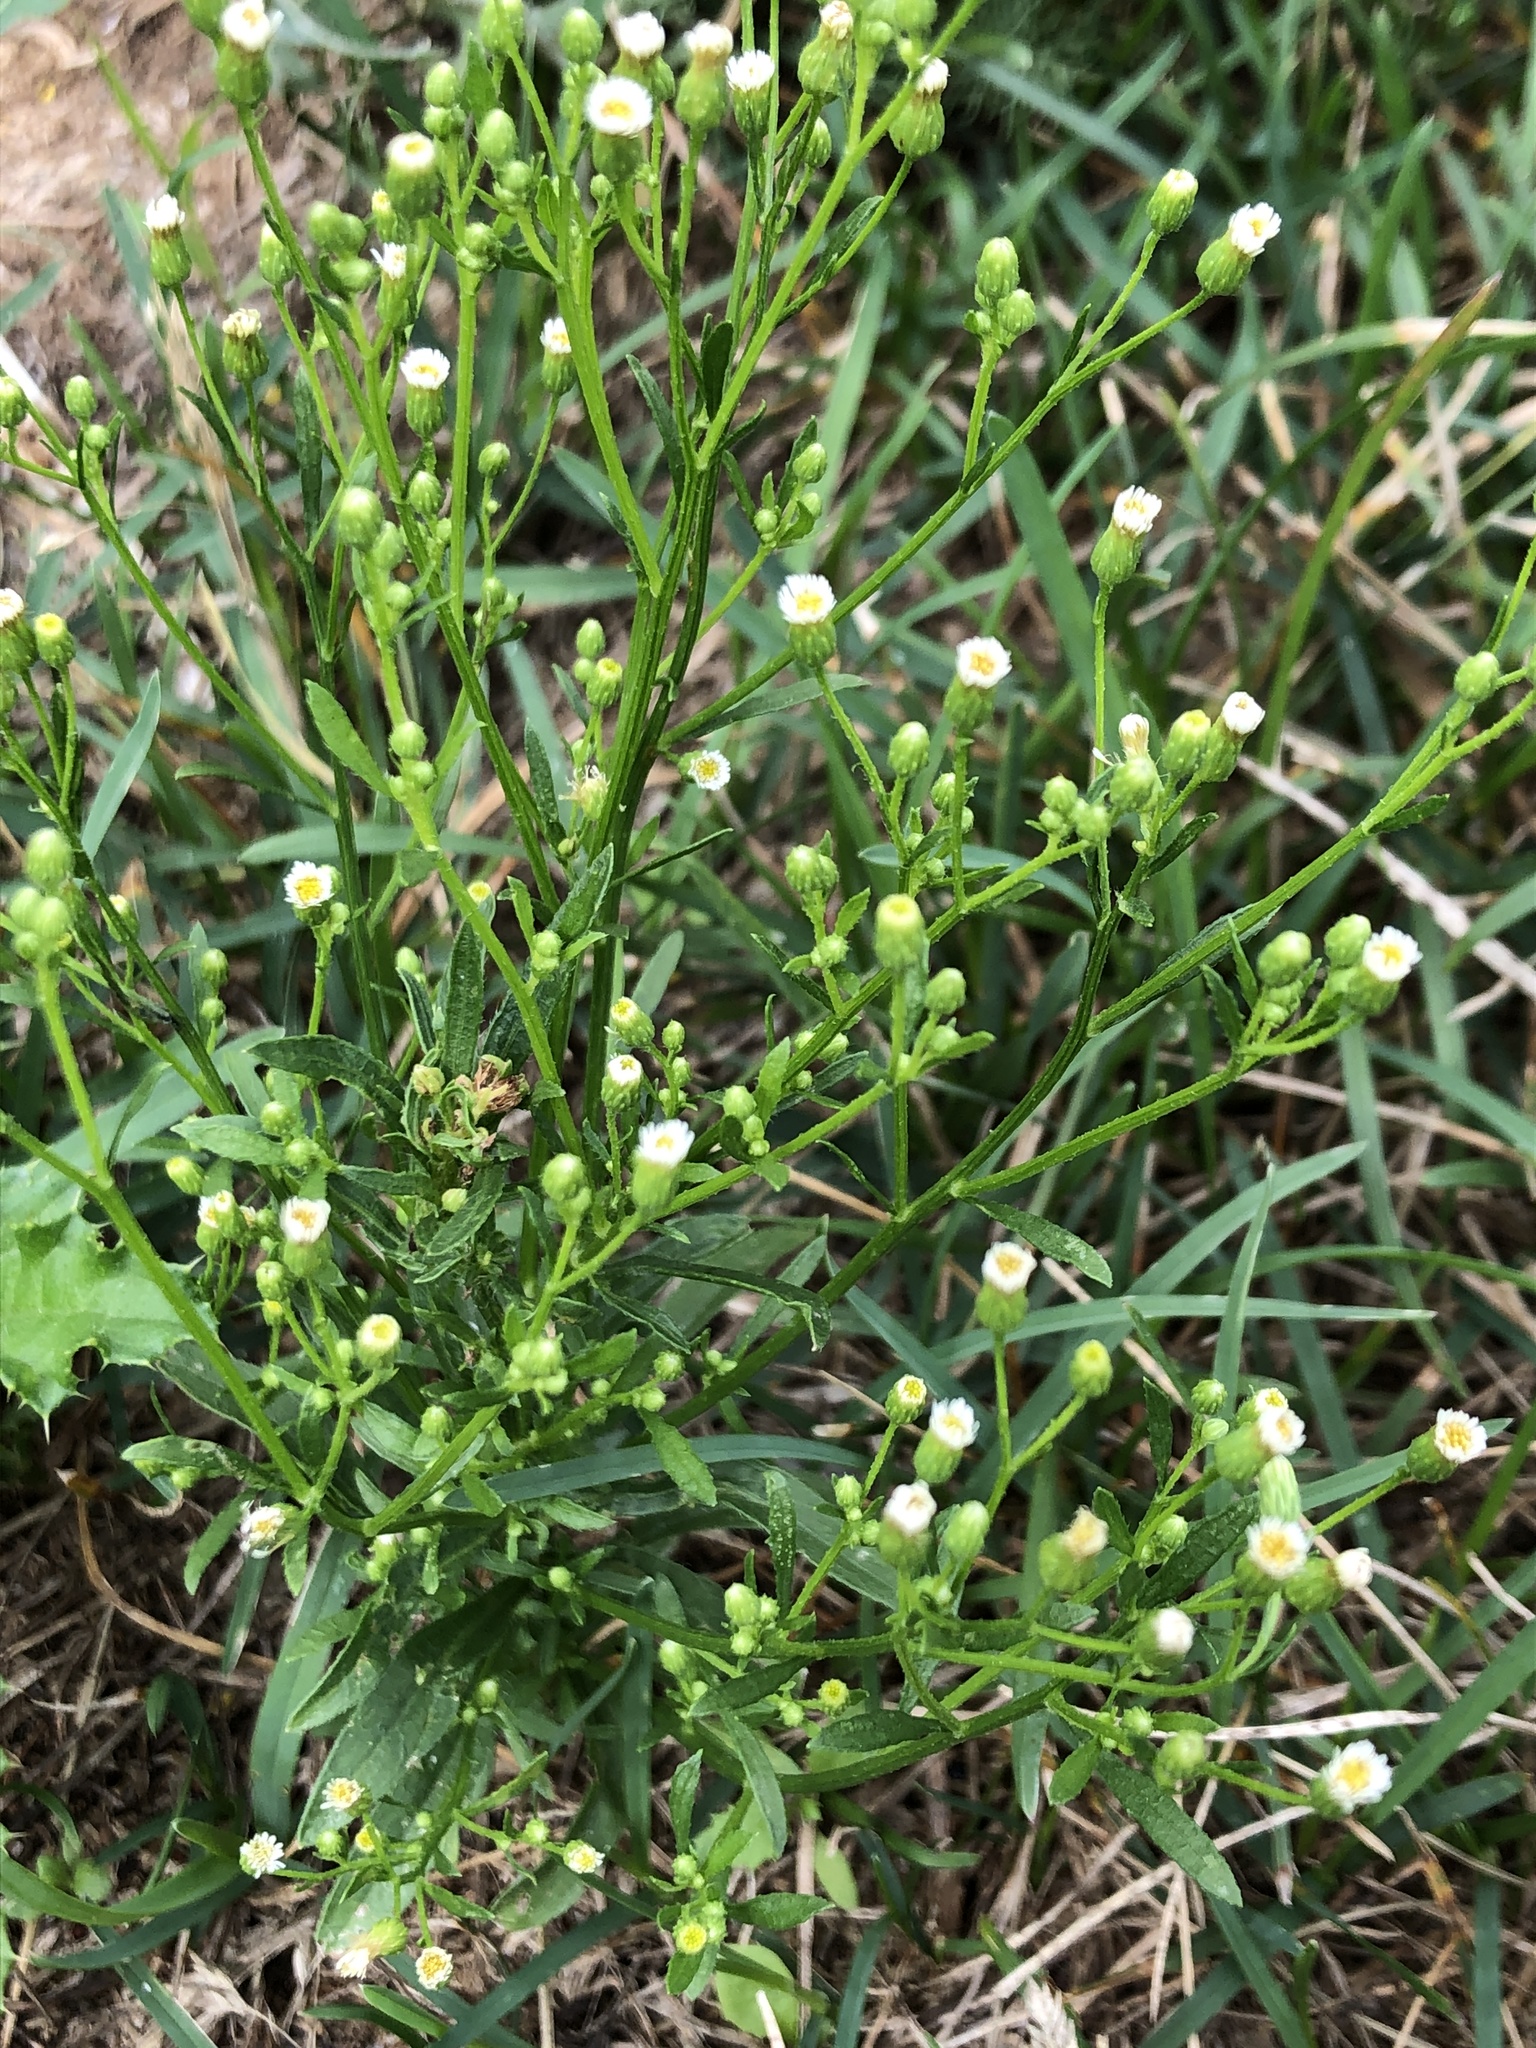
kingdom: Plantae
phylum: Tracheophyta
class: Magnoliopsida
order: Asterales
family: Asteraceae
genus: Erigeron
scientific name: Erigeron canadensis
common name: Canadian fleabane
